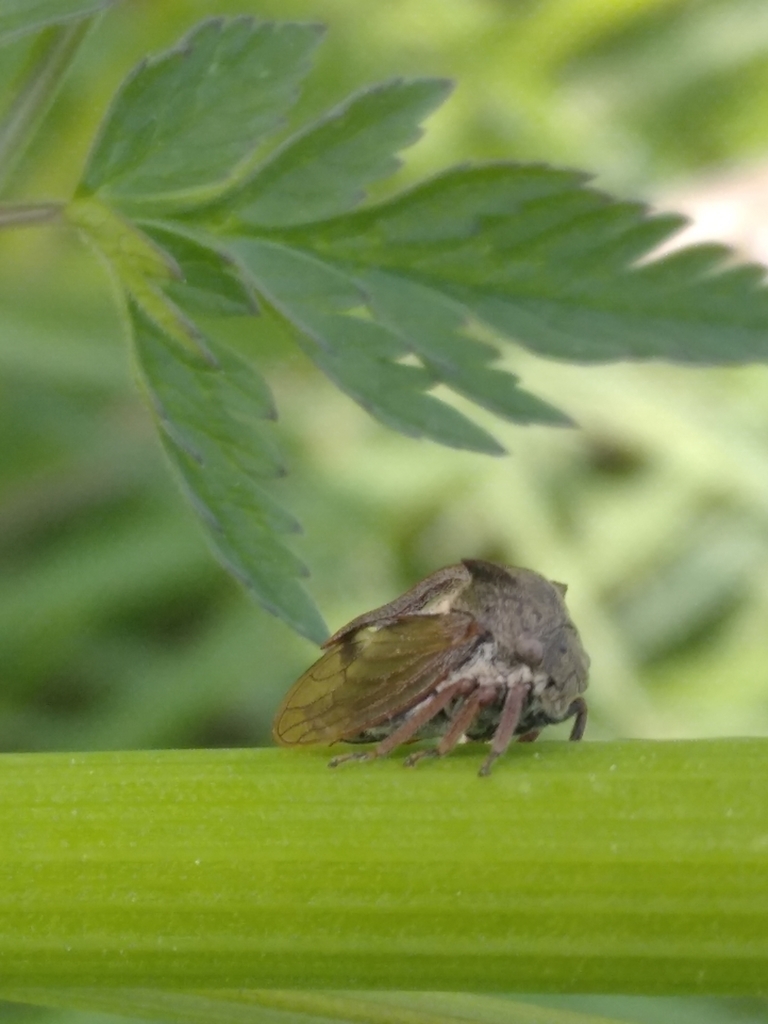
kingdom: Animalia
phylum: Arthropoda
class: Insecta
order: Hemiptera
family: Membracidae
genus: Centrotus
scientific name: Centrotus cornuta
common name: Treehopper
